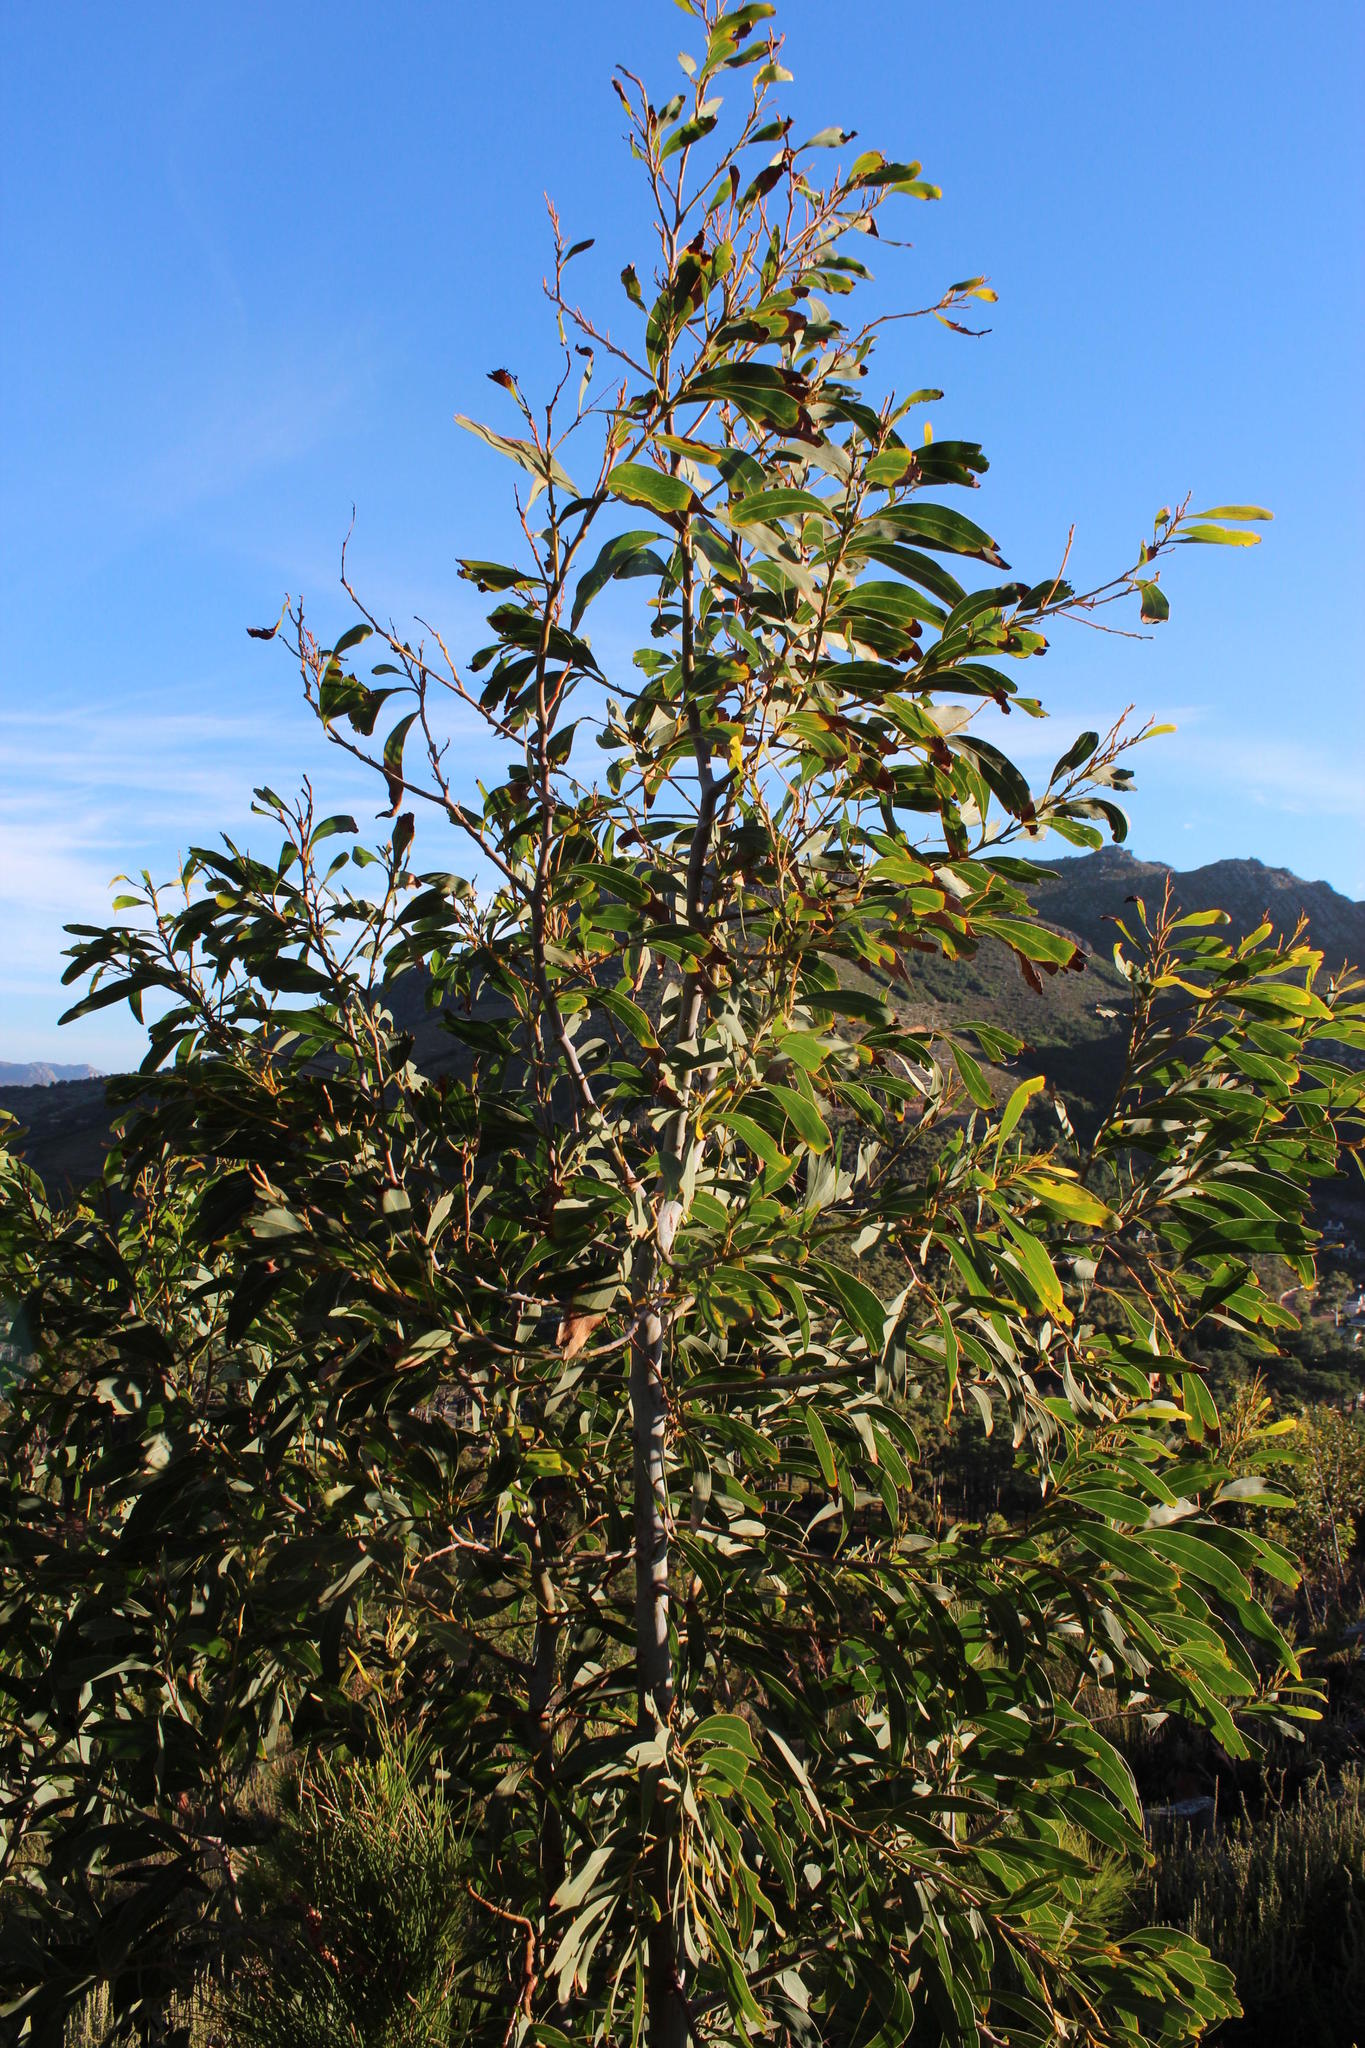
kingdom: Plantae
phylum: Tracheophyta
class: Magnoliopsida
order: Fabales
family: Fabaceae
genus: Acacia
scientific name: Acacia falciformis
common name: Tanning wattle
